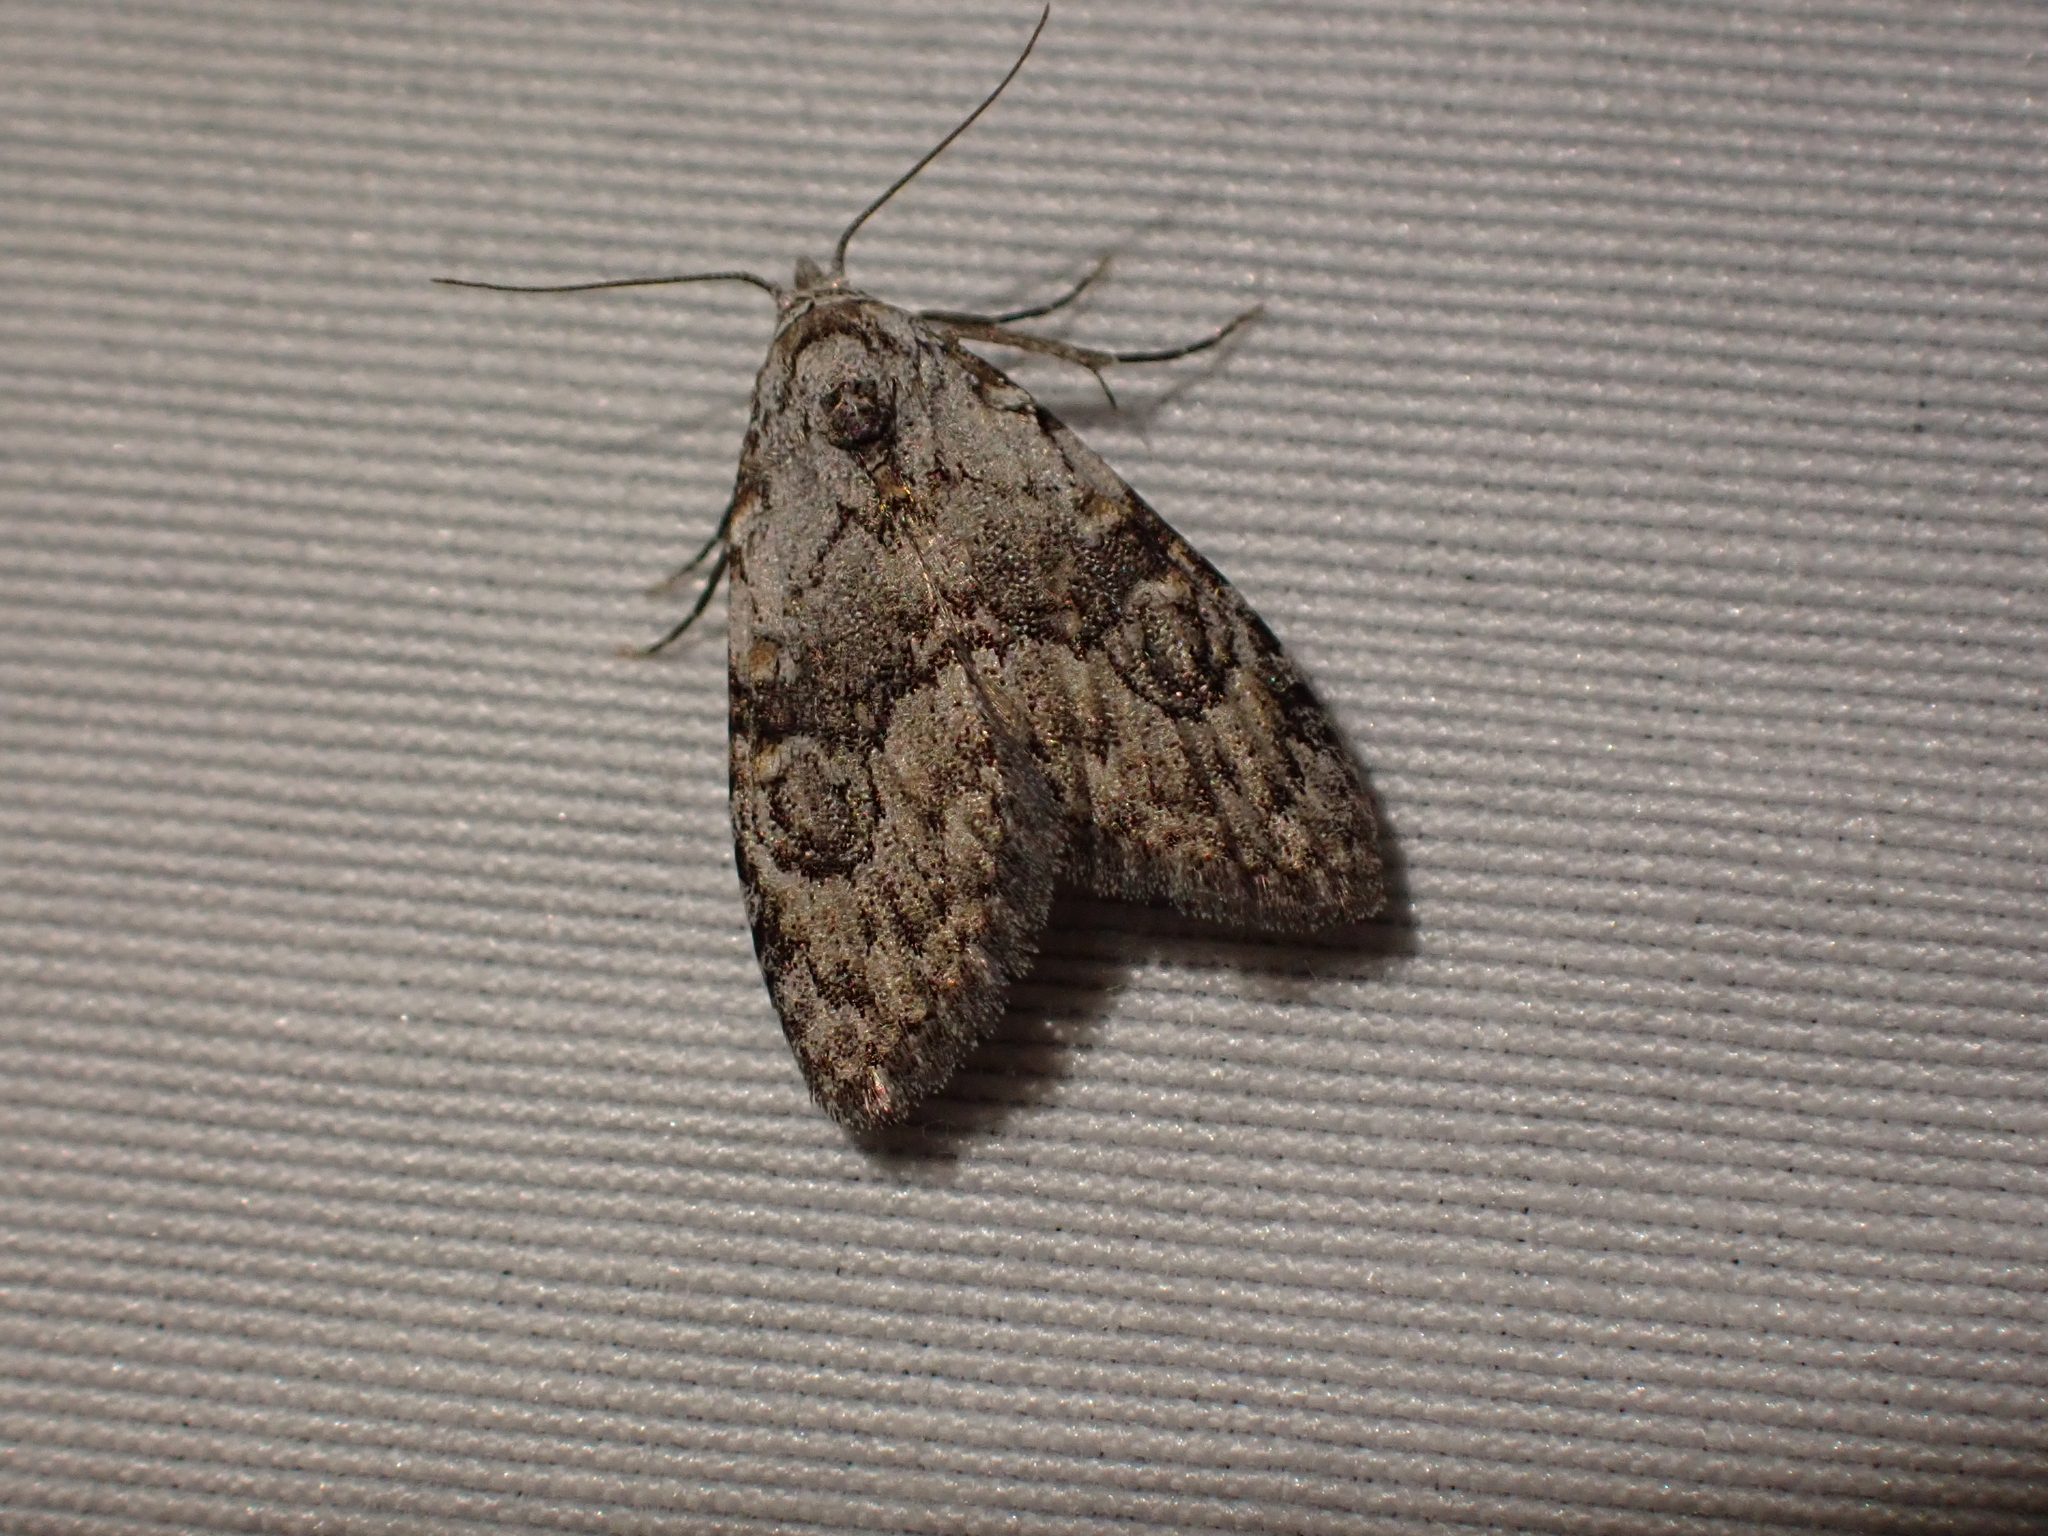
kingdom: Animalia
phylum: Arthropoda
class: Insecta
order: Lepidoptera
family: Nolidae
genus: Meganola
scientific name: Meganola minuscula
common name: Confused meganola moth
